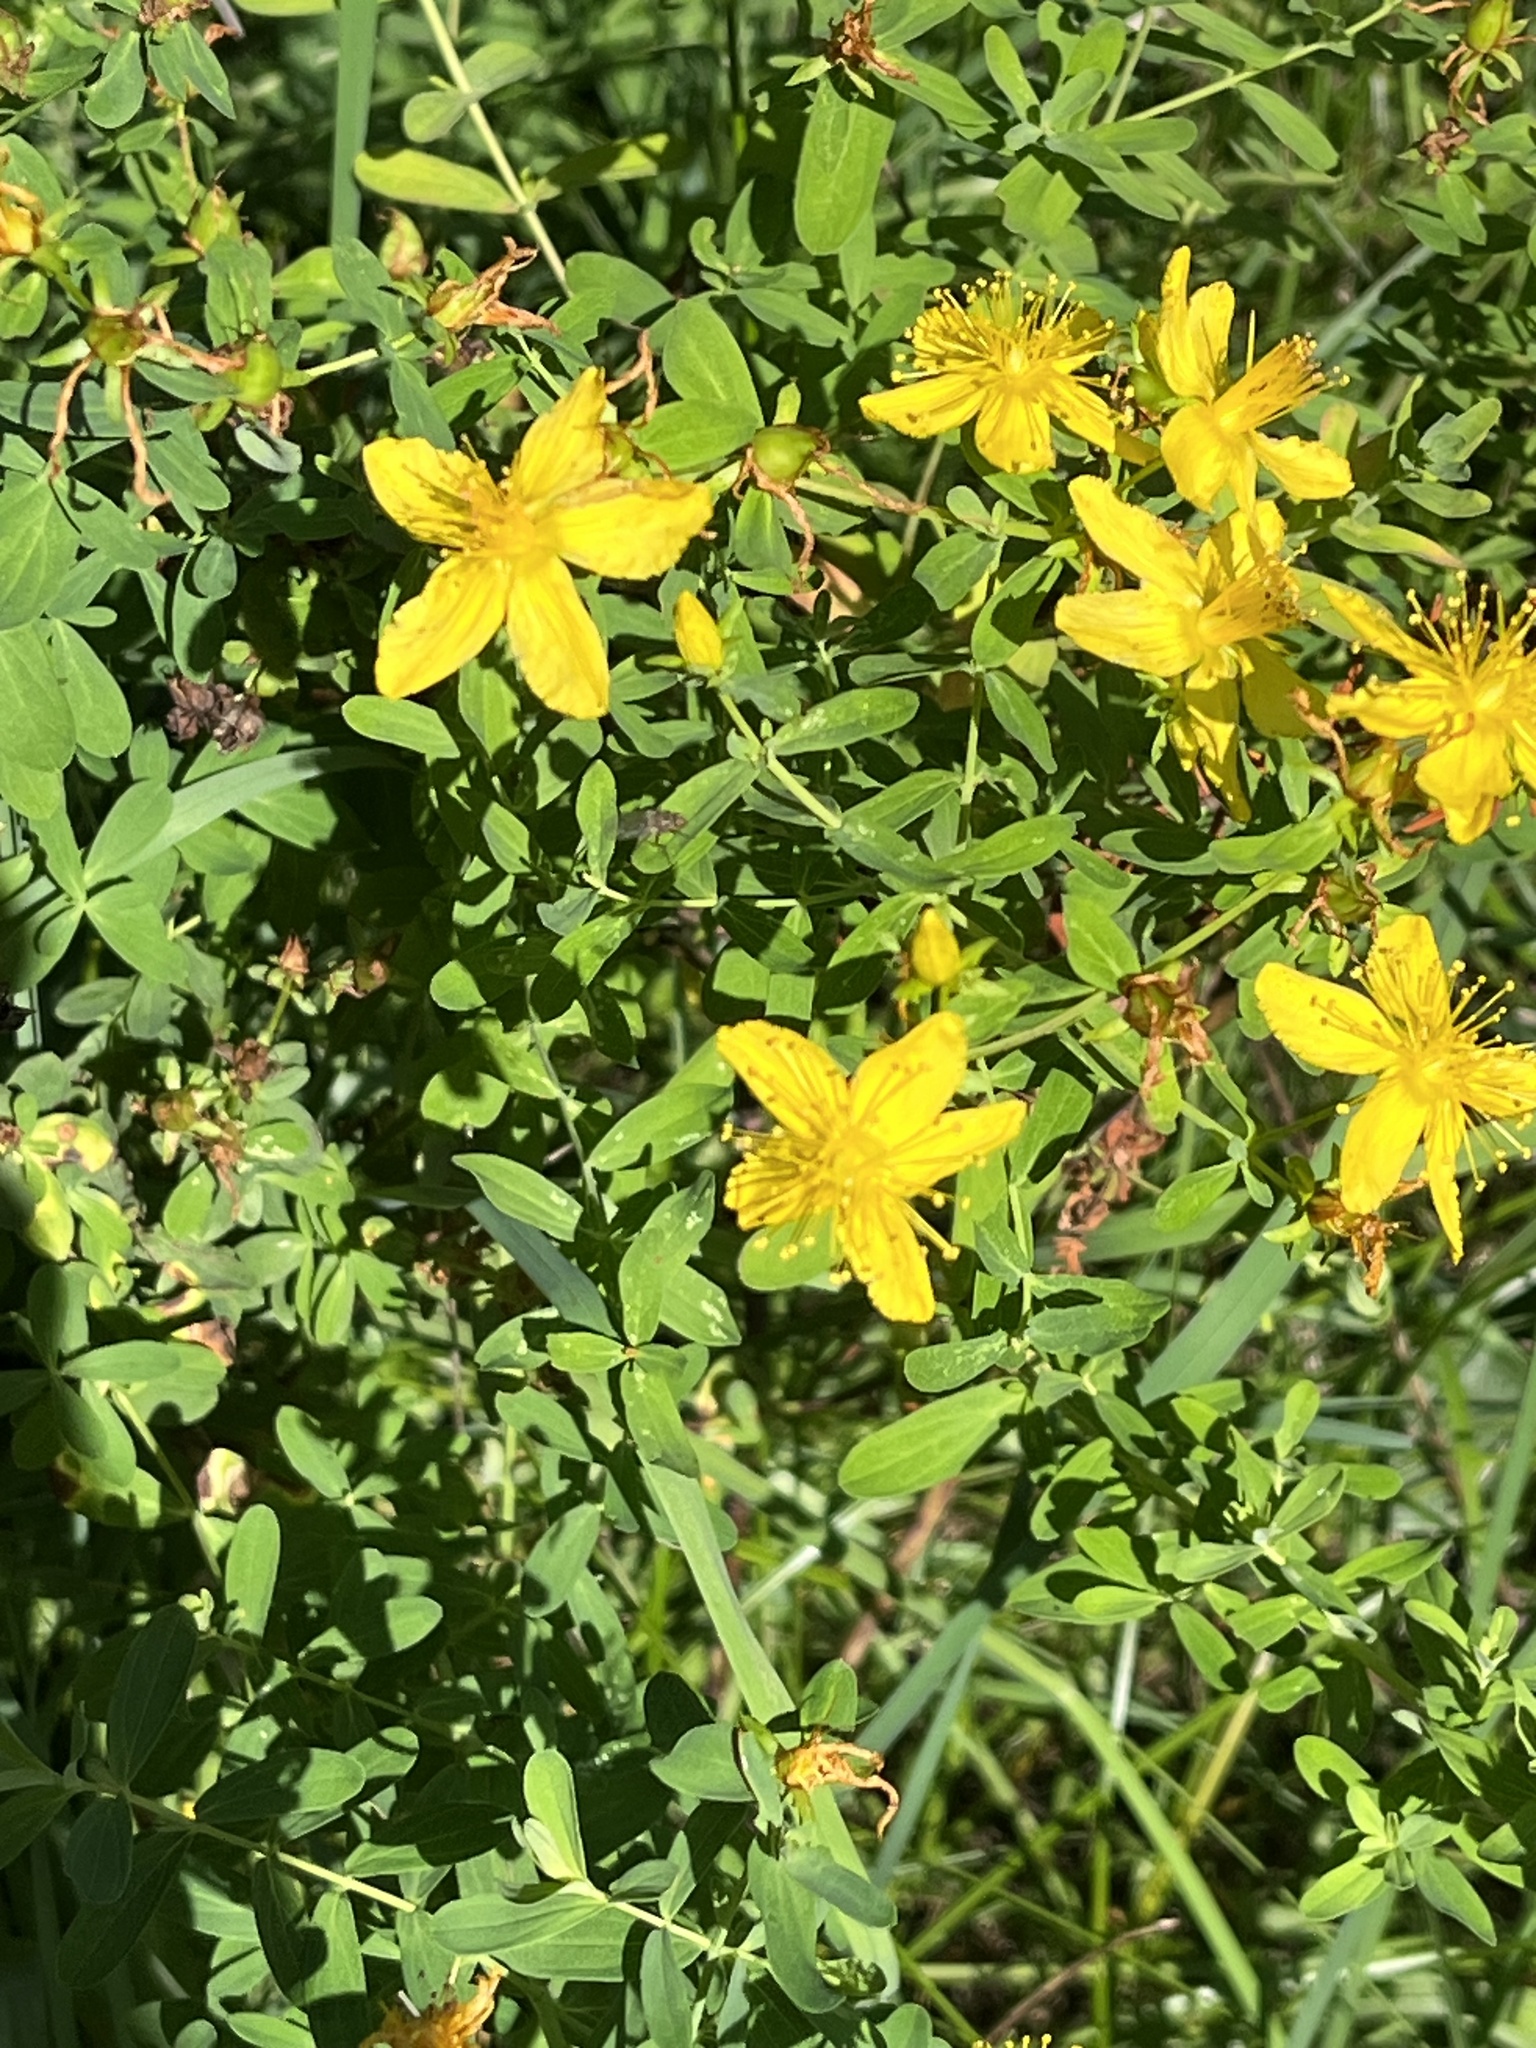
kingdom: Plantae
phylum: Tracheophyta
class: Magnoliopsida
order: Malpighiales
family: Hypericaceae
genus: Hypericum
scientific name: Hypericum perforatum
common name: Common st. johnswort
